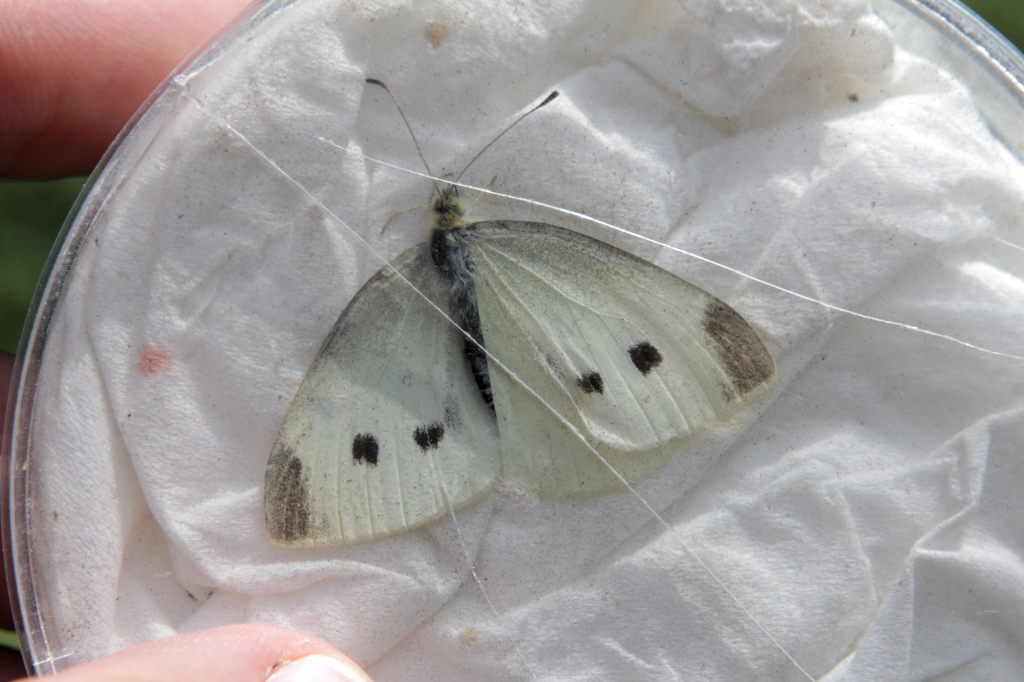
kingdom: Animalia
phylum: Arthropoda
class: Insecta
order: Lepidoptera
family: Pieridae
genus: Pieris
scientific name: Pieris rapae
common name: Small white
